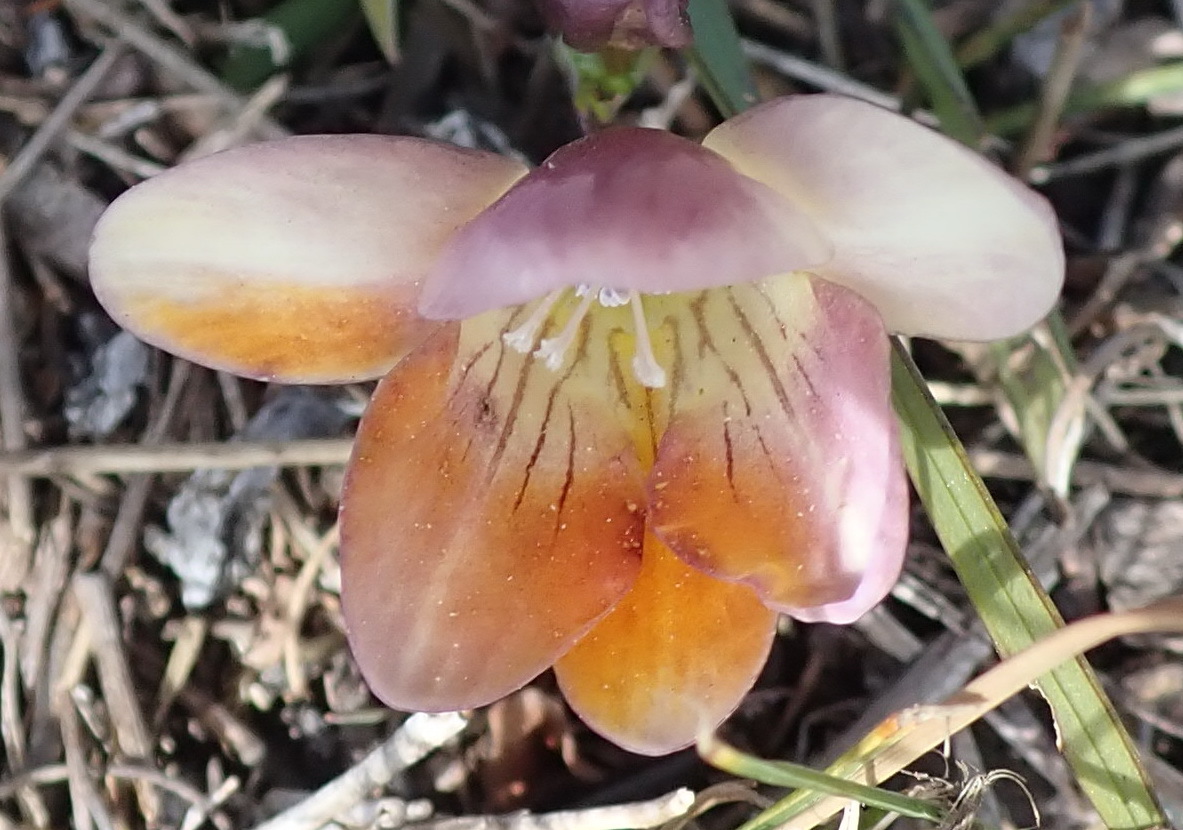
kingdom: Plantae
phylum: Tracheophyta
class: Liliopsida
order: Asparagales
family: Iridaceae
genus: Freesia
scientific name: Freesia caryophyllacea
